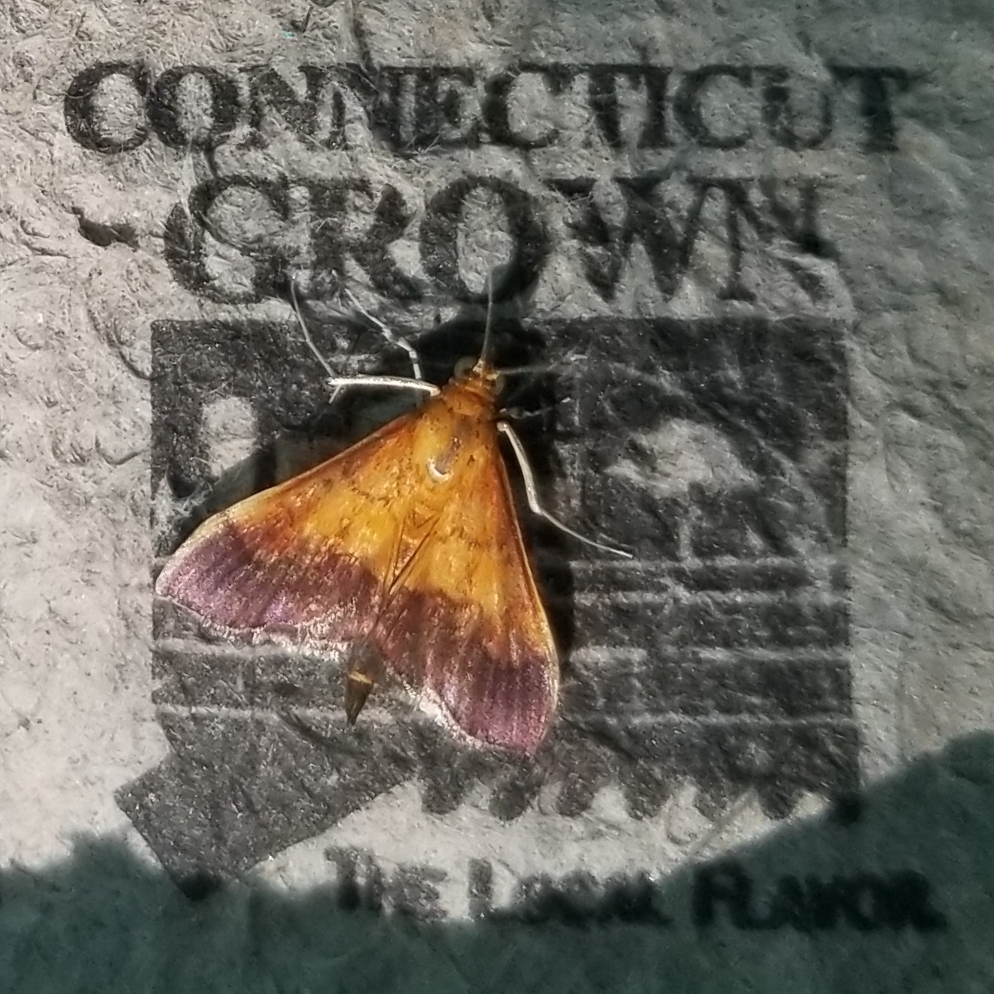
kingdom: Animalia
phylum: Arthropoda
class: Insecta
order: Lepidoptera
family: Crambidae
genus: Pyrausta
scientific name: Pyrausta bicoloralis
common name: Bicolored pyrausta moth
